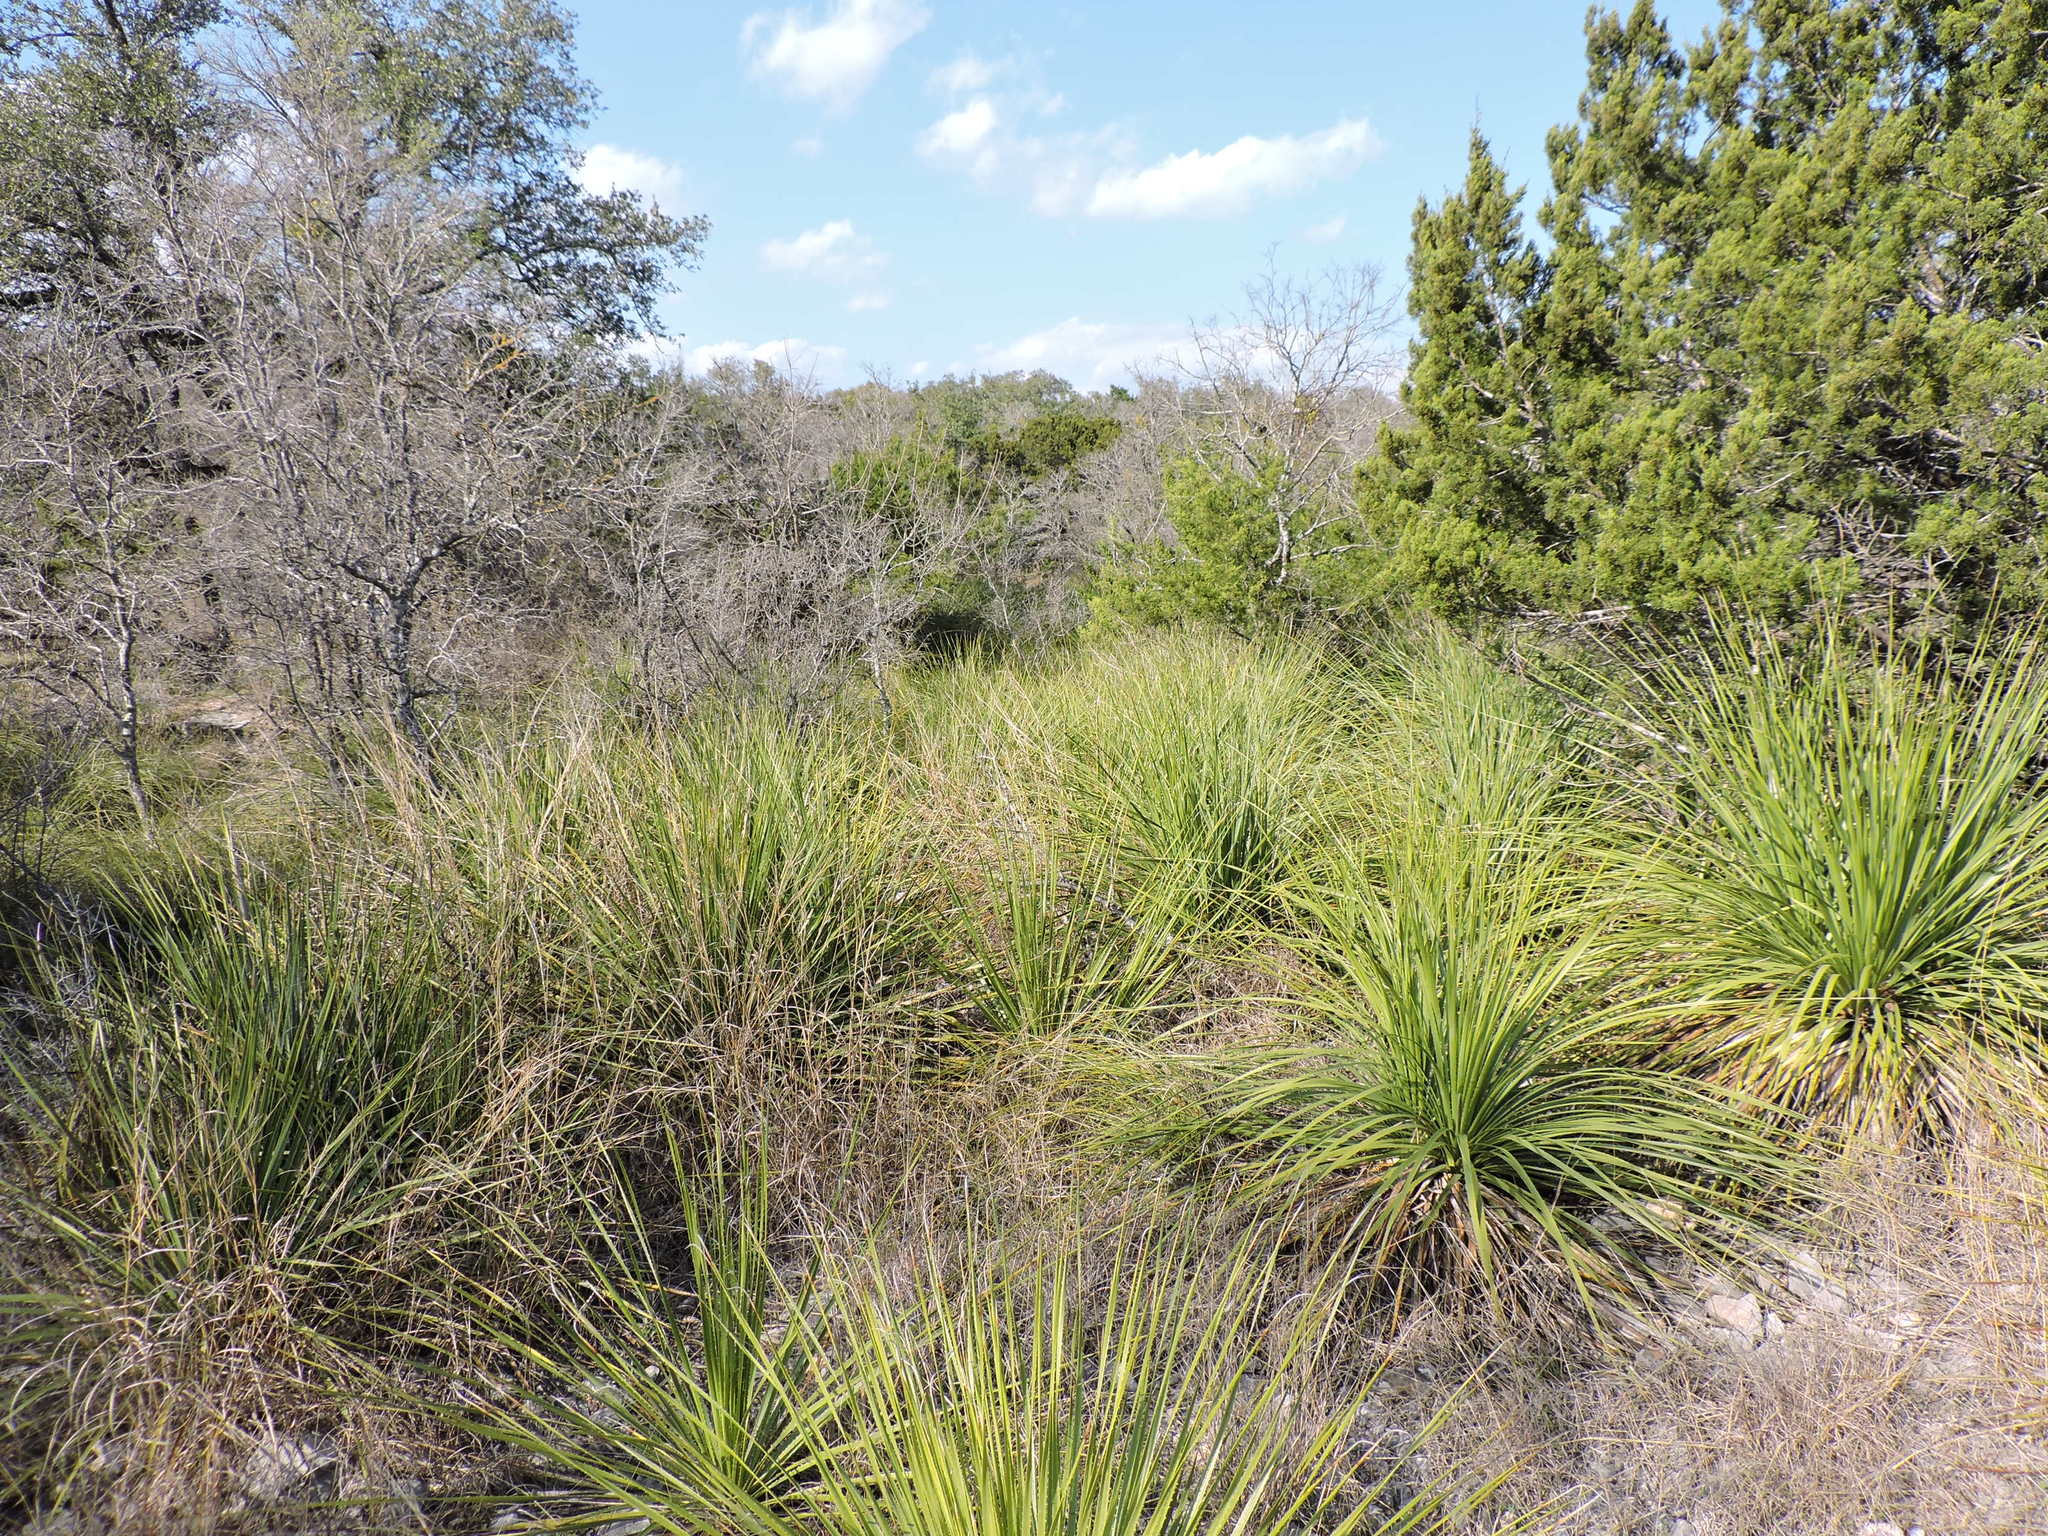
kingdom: Plantae
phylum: Tracheophyta
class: Liliopsida
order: Asparagales
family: Asparagaceae
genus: Dasylirion
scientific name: Dasylirion texanum
